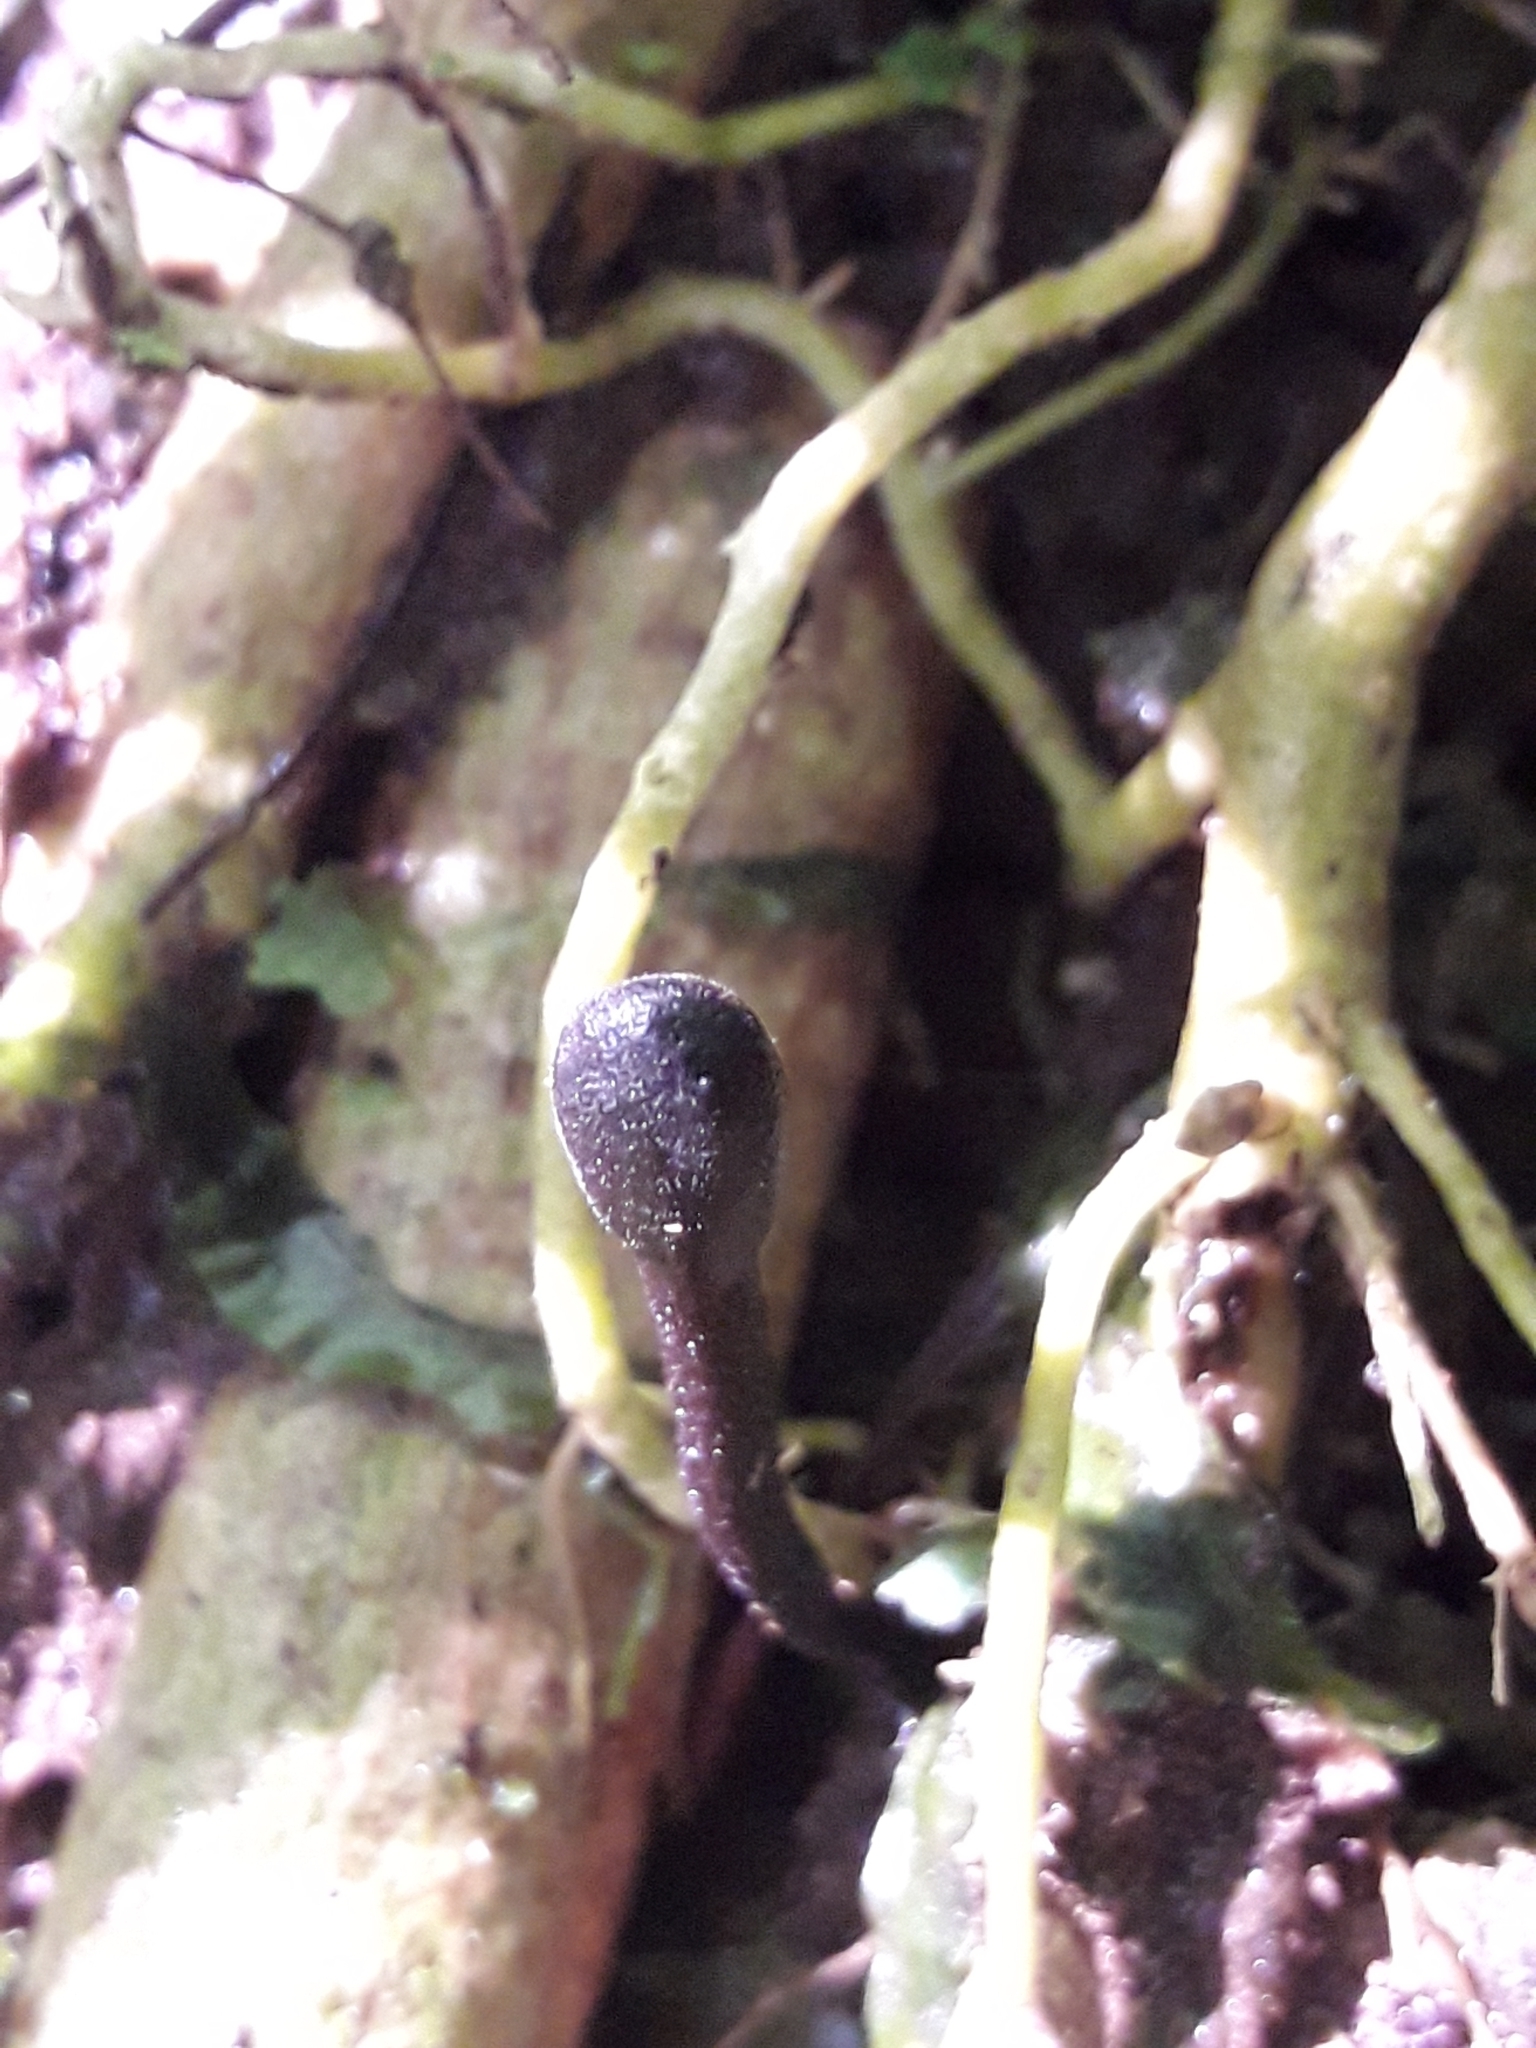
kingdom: Fungi
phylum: Ascomycota
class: Geoglossomycetes
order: Geoglossales
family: Geoglossaceae
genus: Geoglossum
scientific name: Geoglossum
